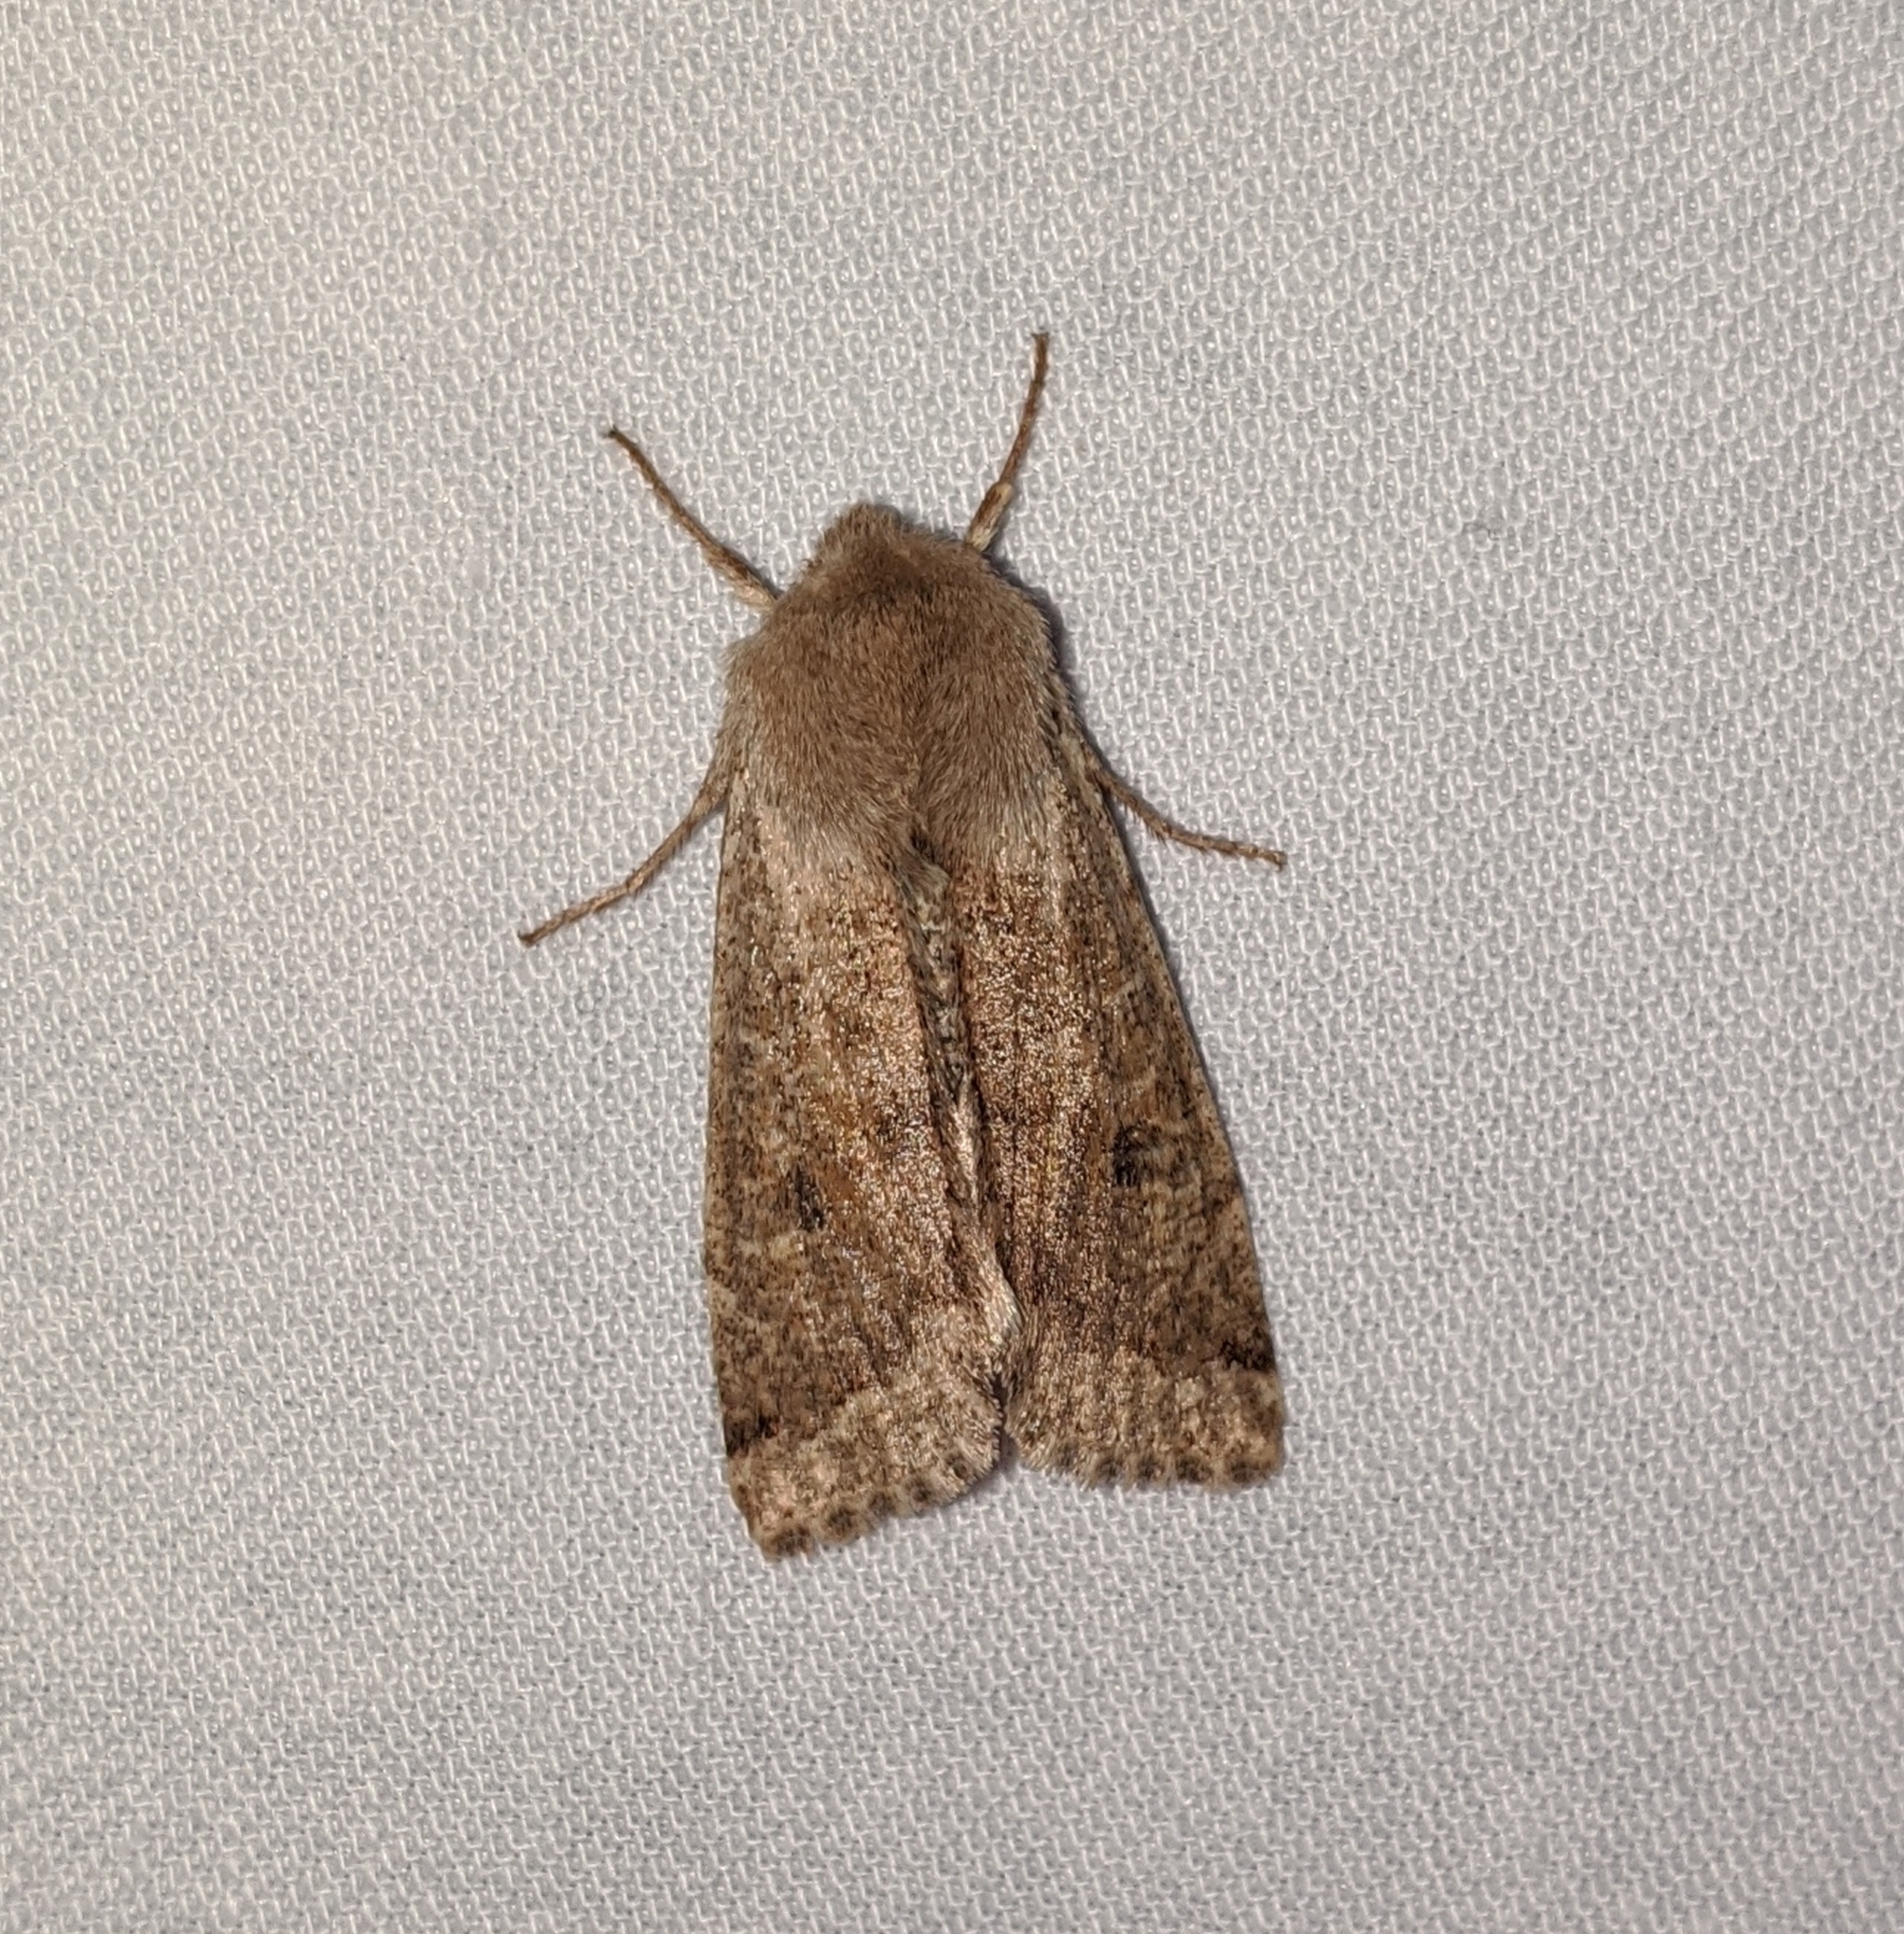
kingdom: Animalia
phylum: Arthropoda
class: Insecta
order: Lepidoptera
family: Noctuidae
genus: Orthosia
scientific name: Orthosia pacifica
